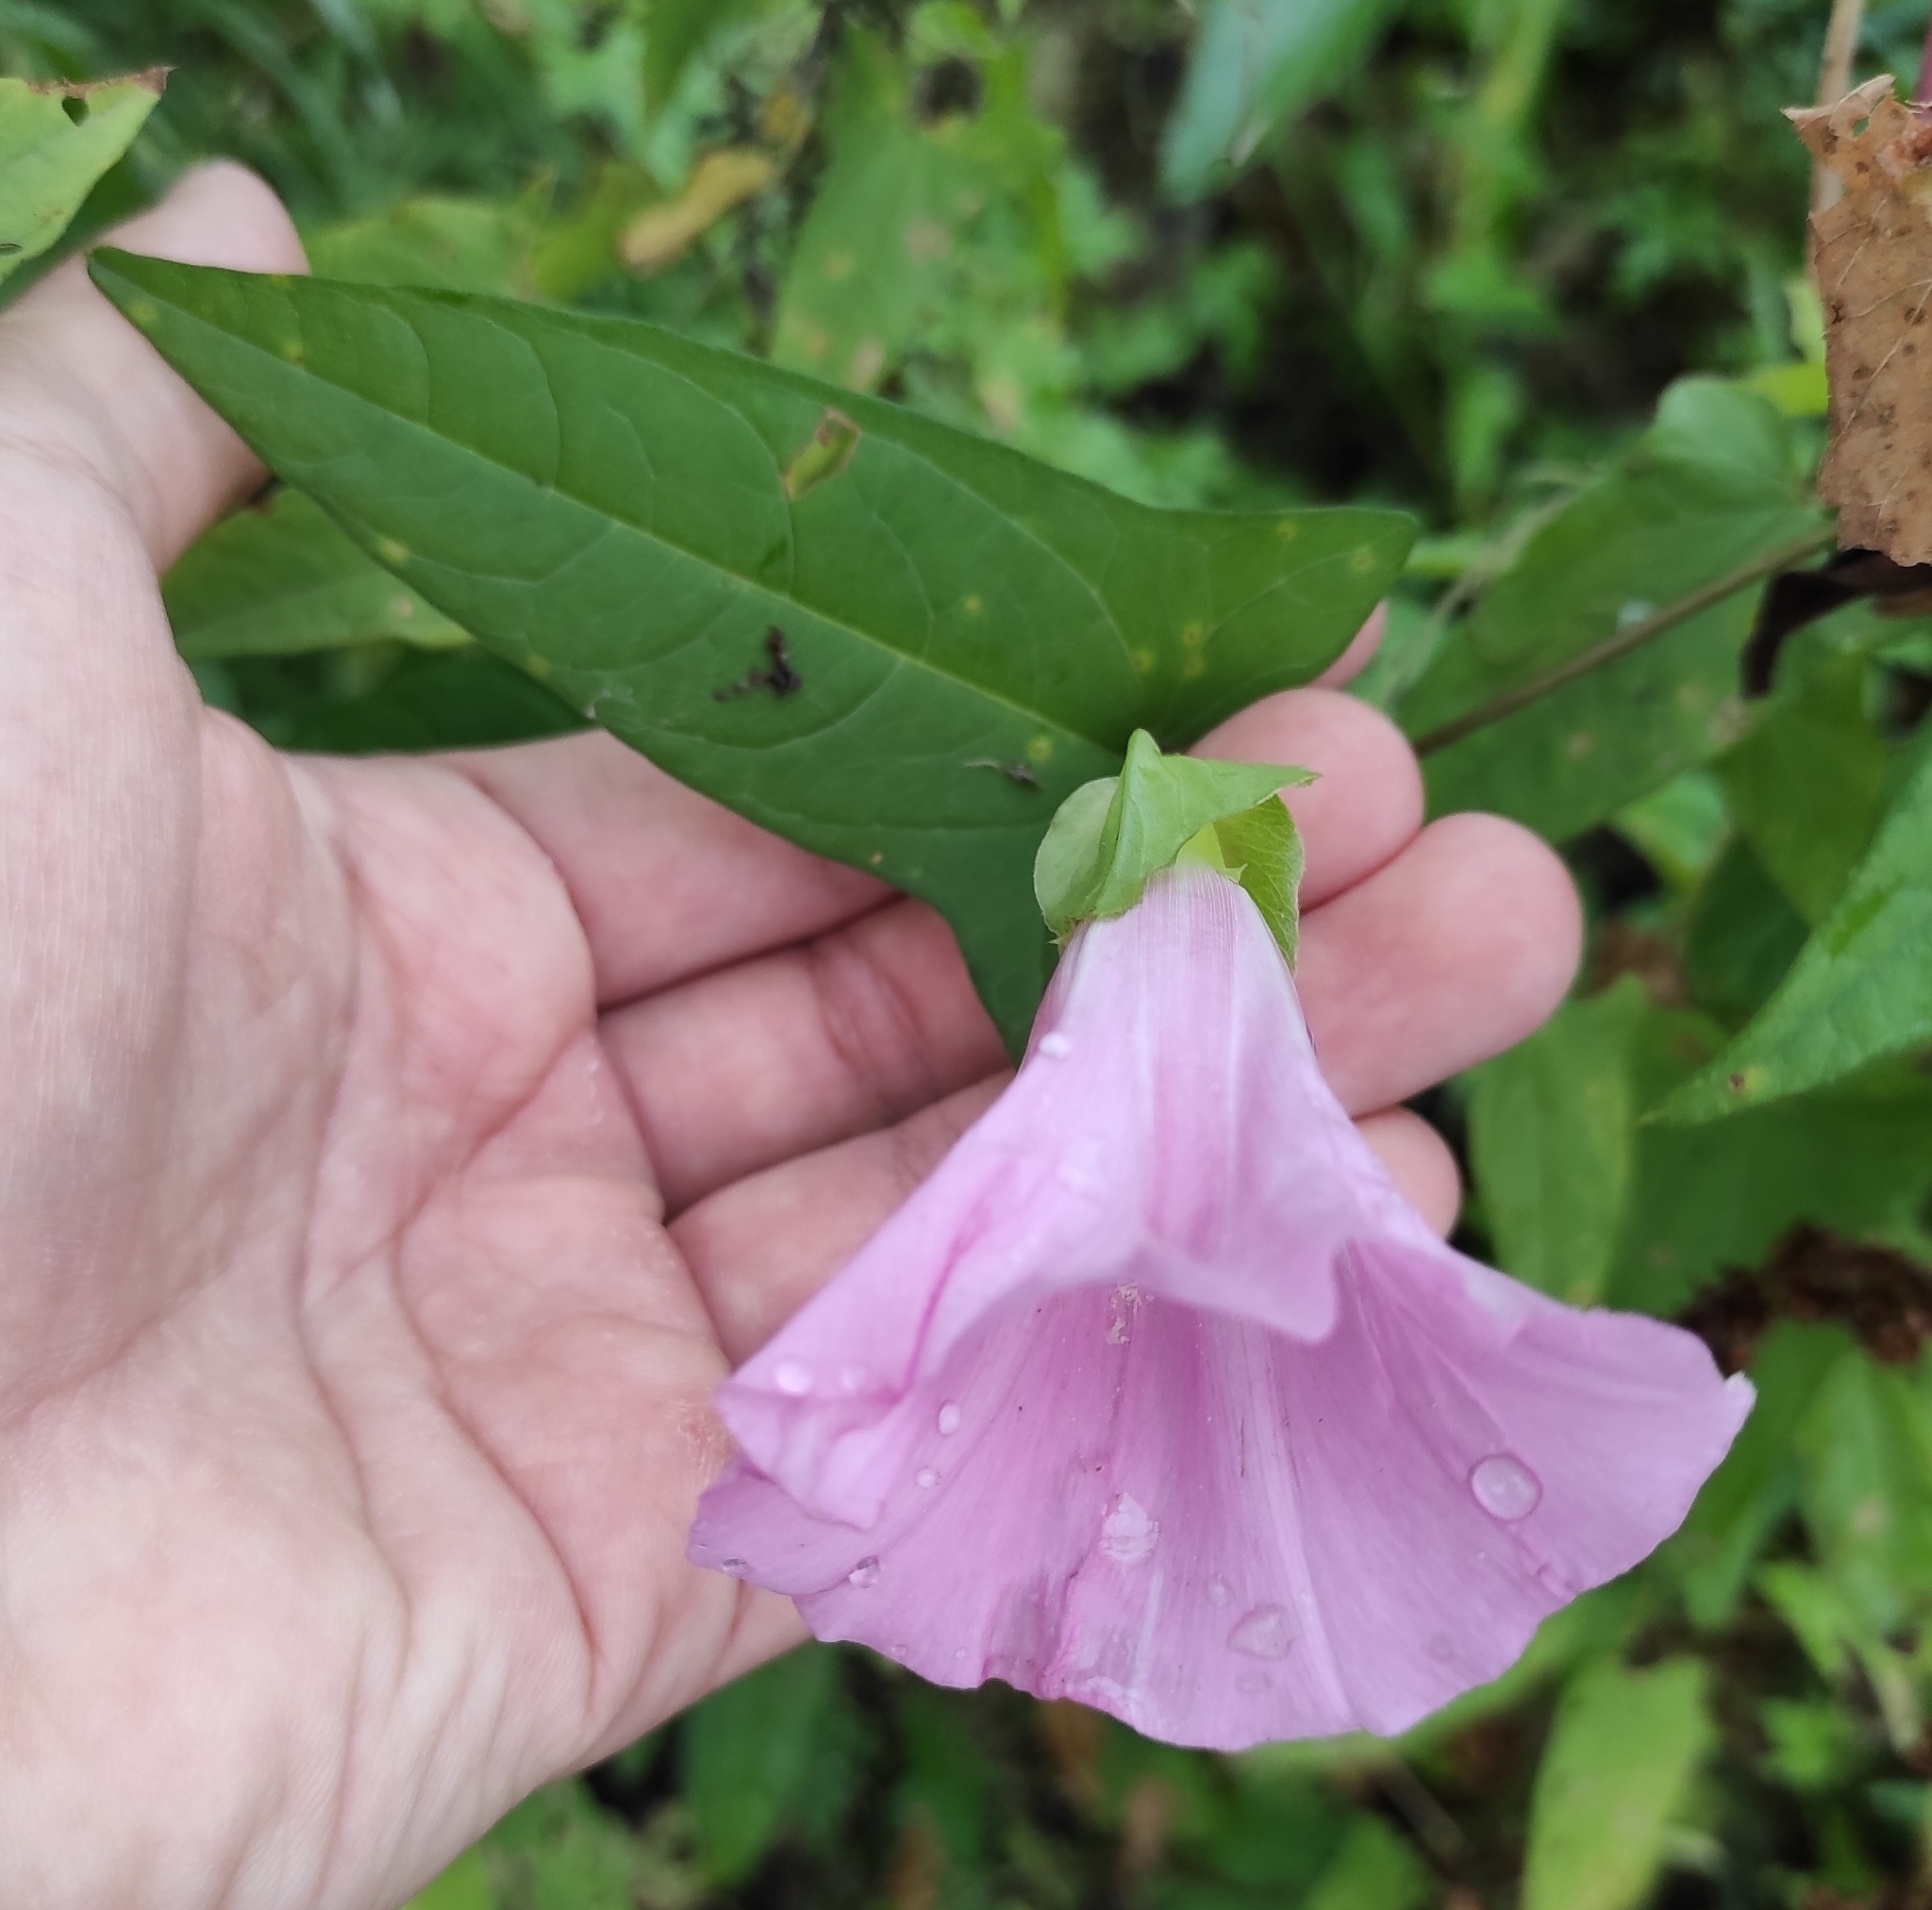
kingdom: Plantae
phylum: Tracheophyta
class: Magnoliopsida
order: Solanales
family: Convolvulaceae
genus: Calystegia
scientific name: Calystegia sepium
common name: Hedge bindweed
